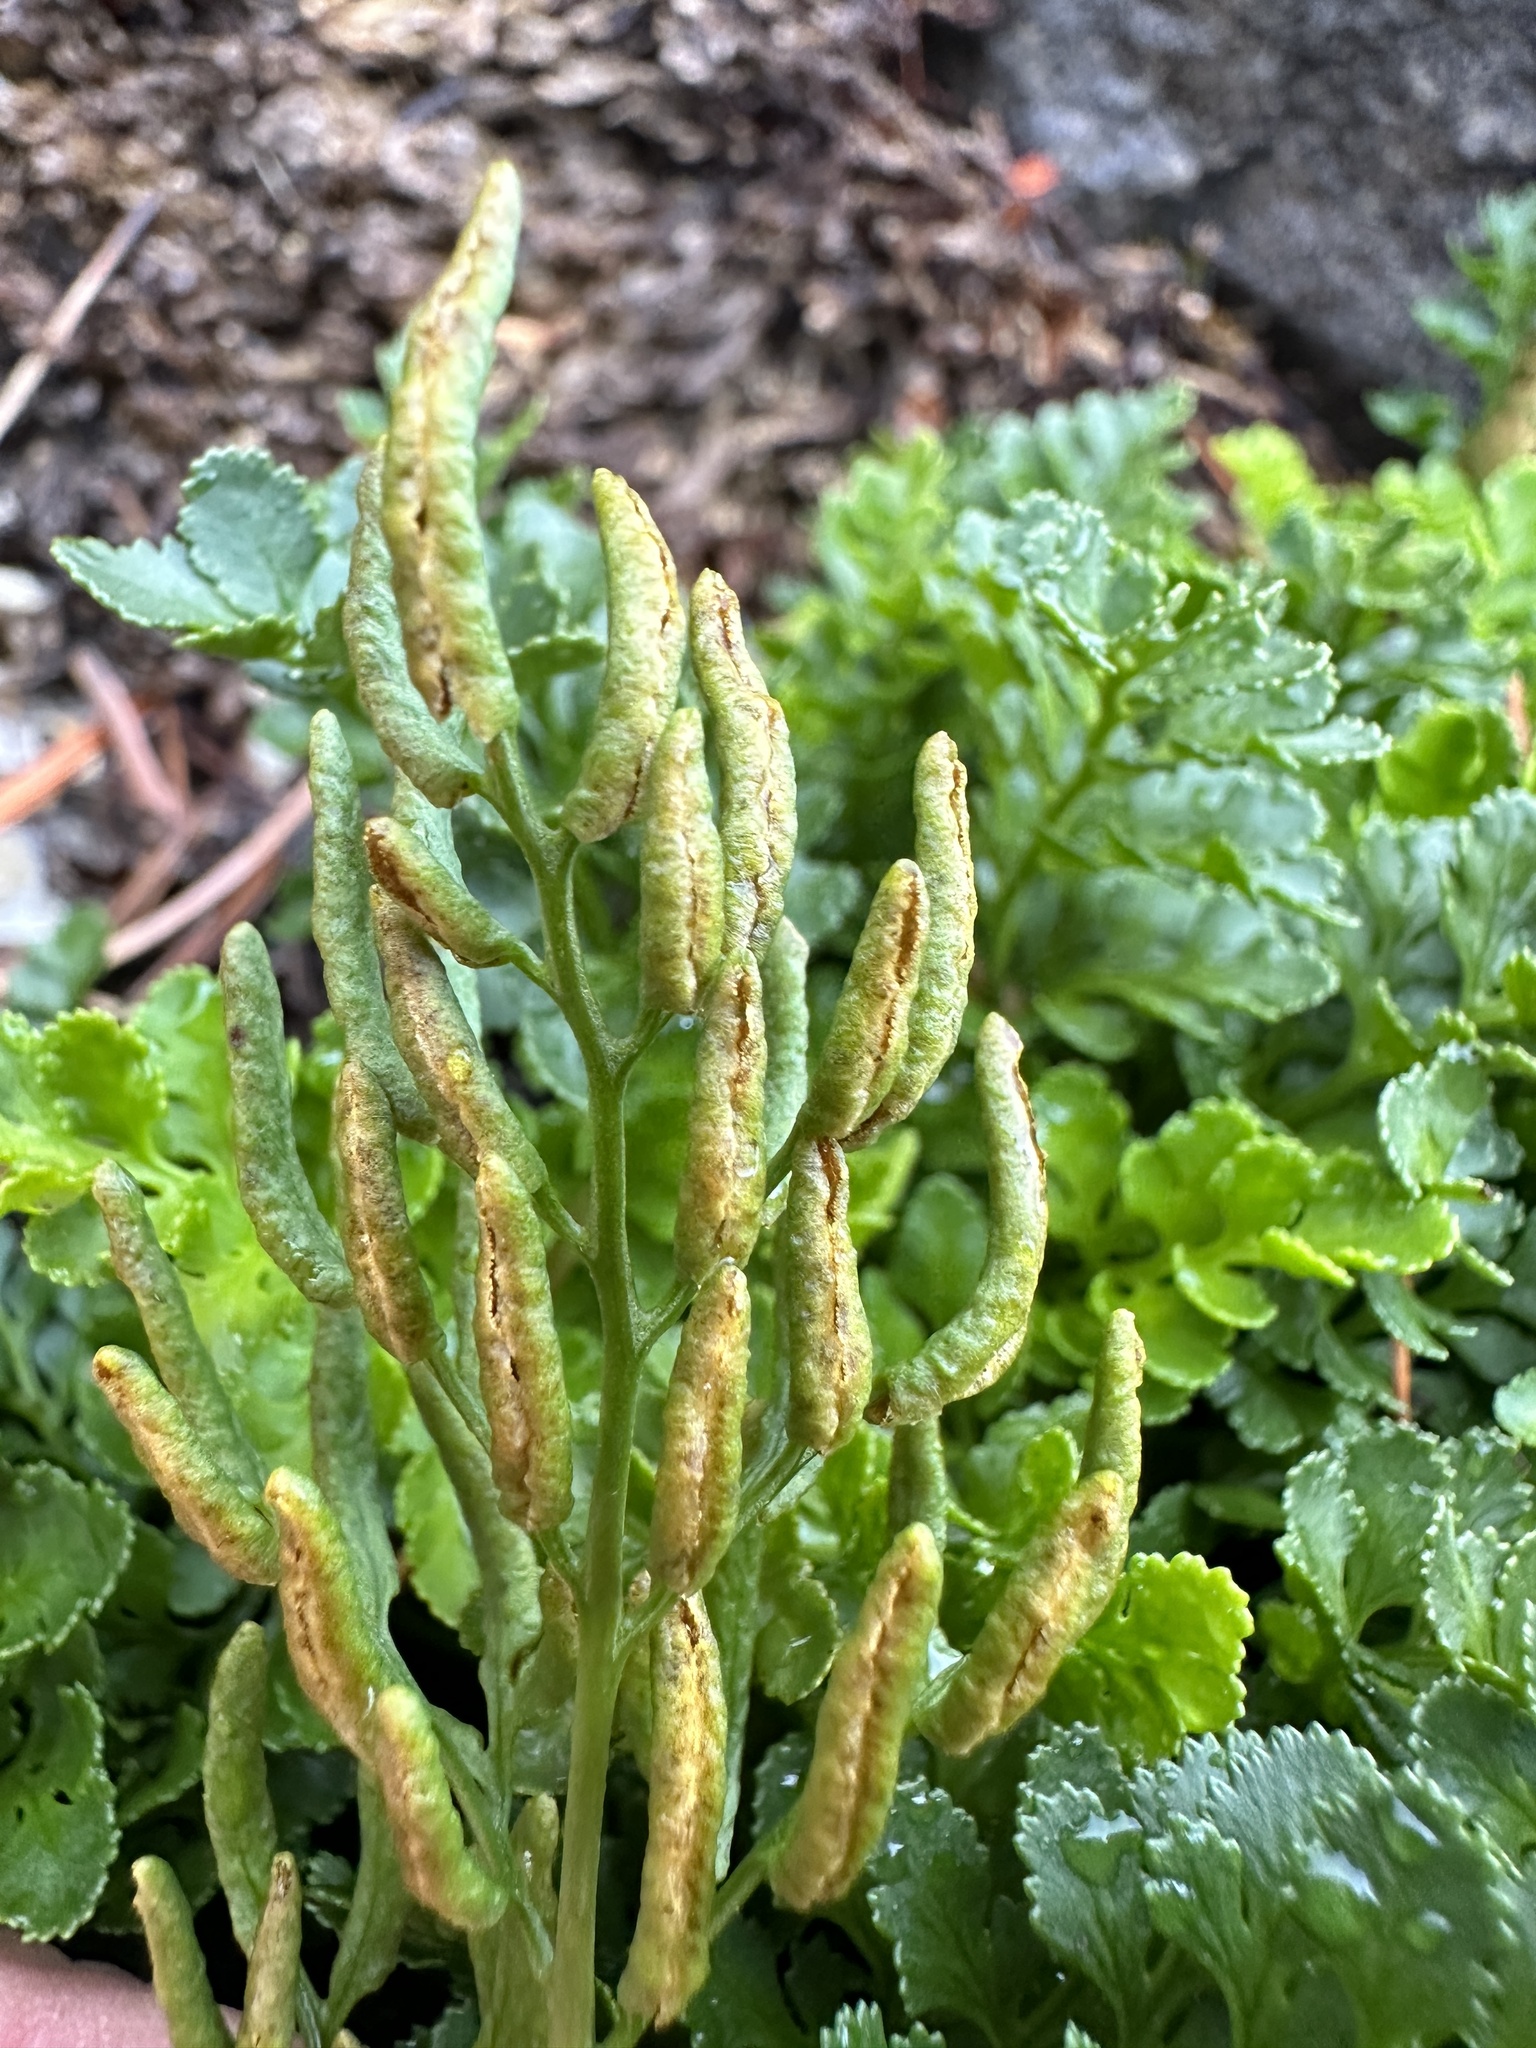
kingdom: Plantae
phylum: Tracheophyta
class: Polypodiopsida
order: Polypodiales
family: Pteridaceae
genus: Cryptogramma
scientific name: Cryptogramma acrostichoides
